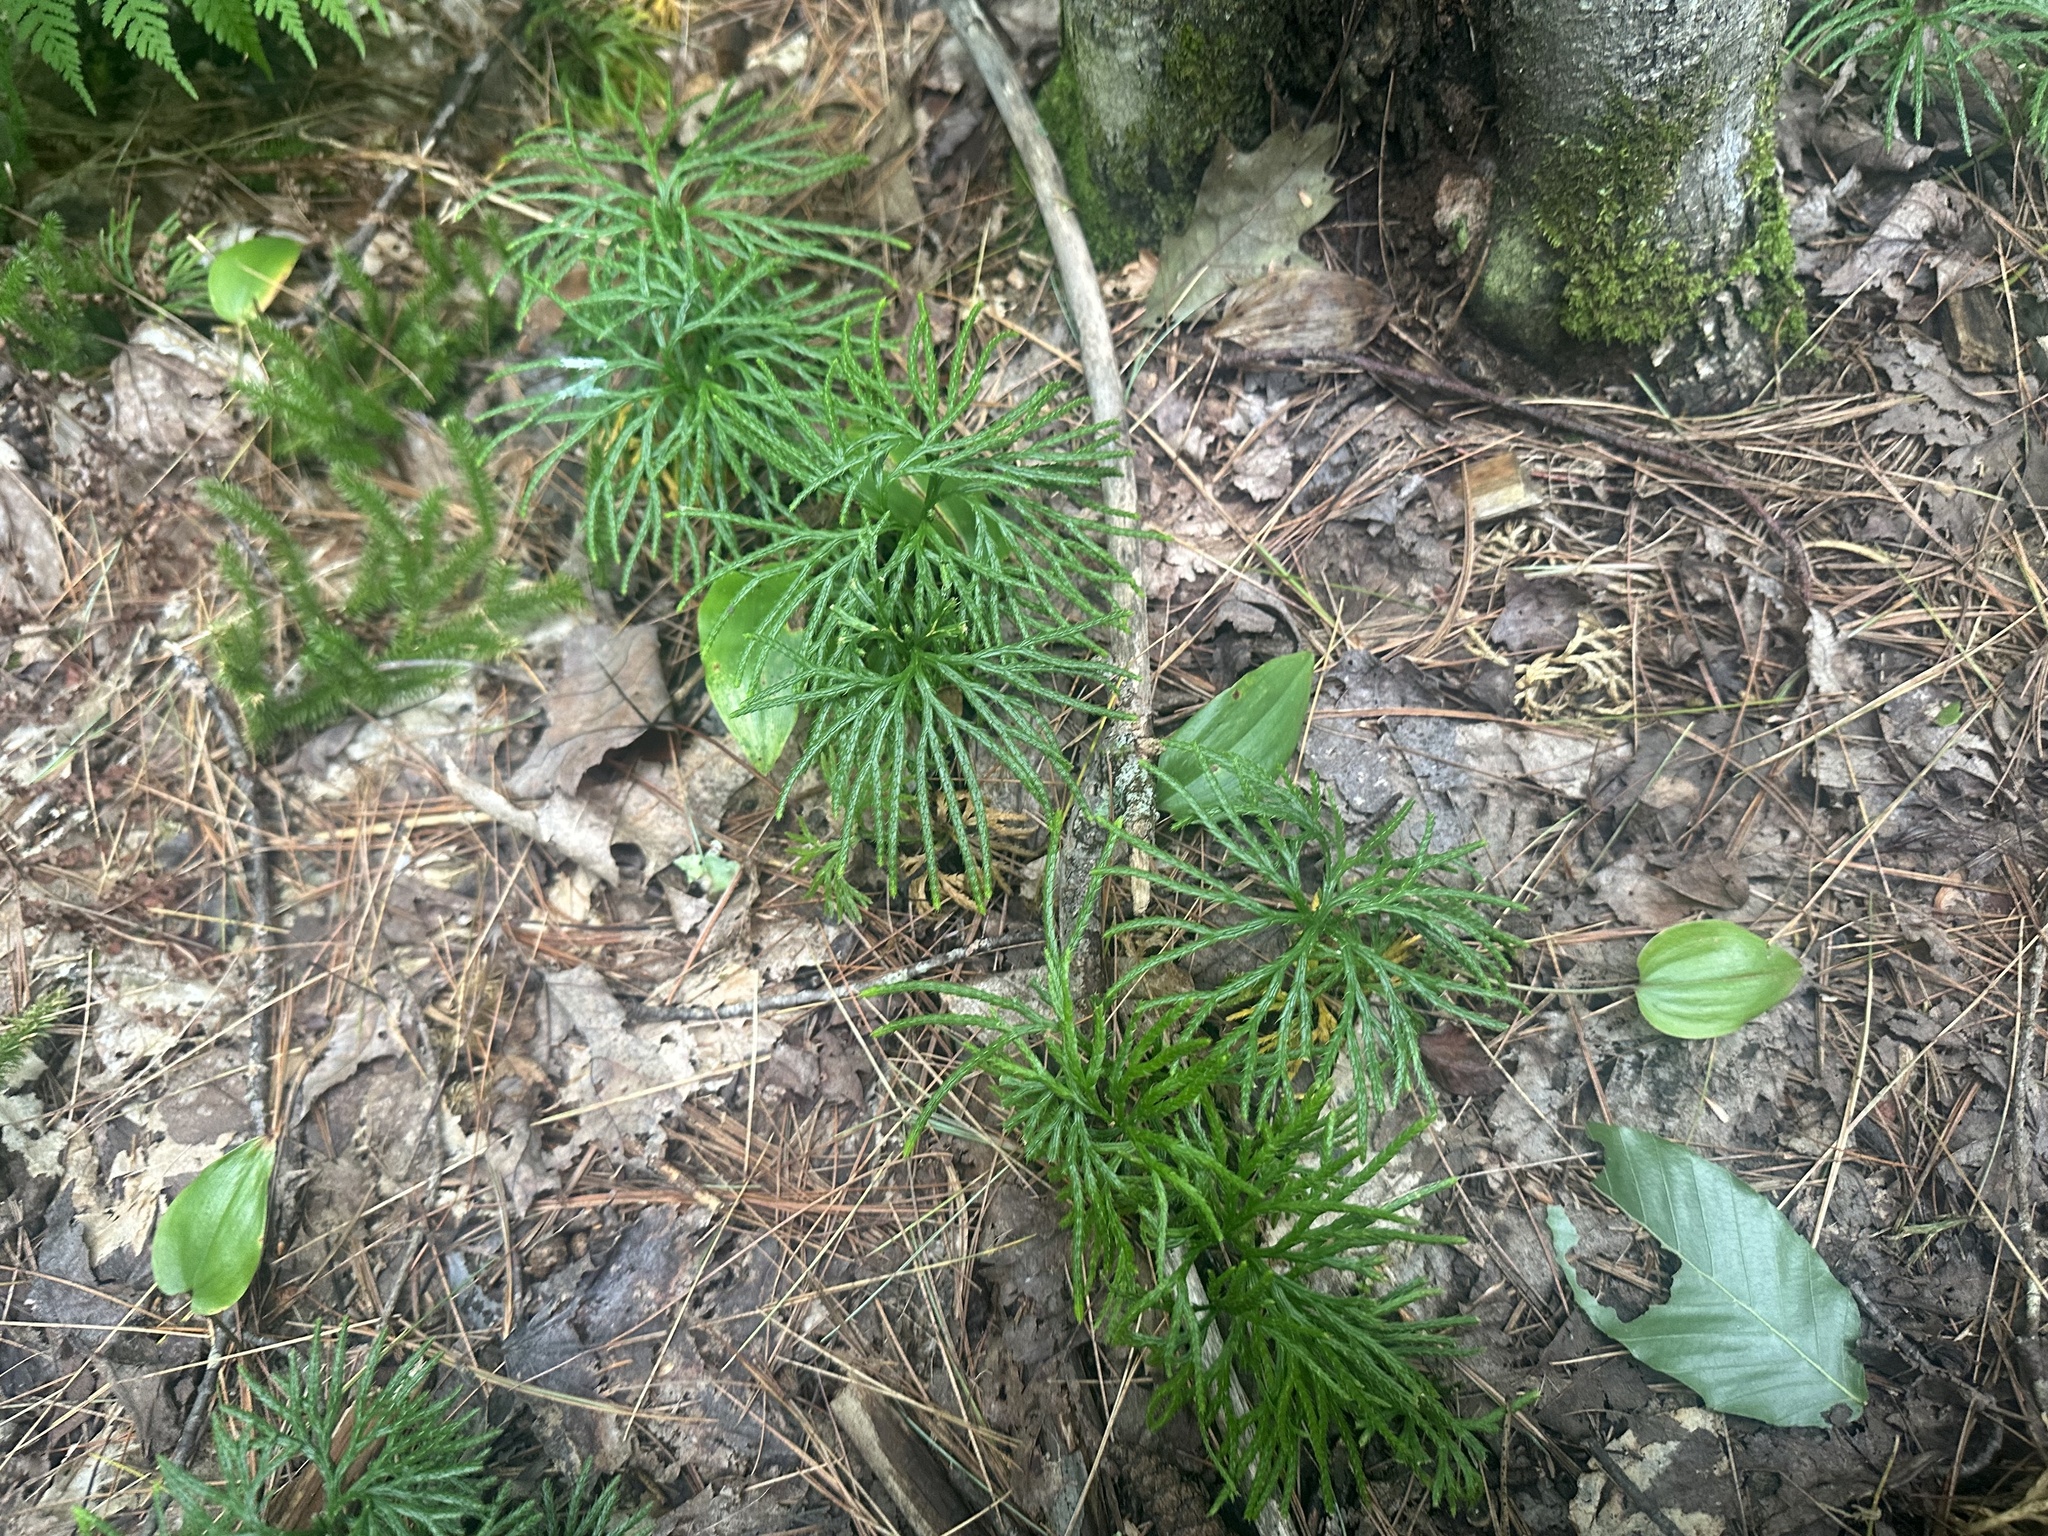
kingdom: Plantae
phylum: Tracheophyta
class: Lycopodiopsida
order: Lycopodiales
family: Lycopodiaceae
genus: Diphasiastrum
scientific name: Diphasiastrum digitatum
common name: Southern running-pine
